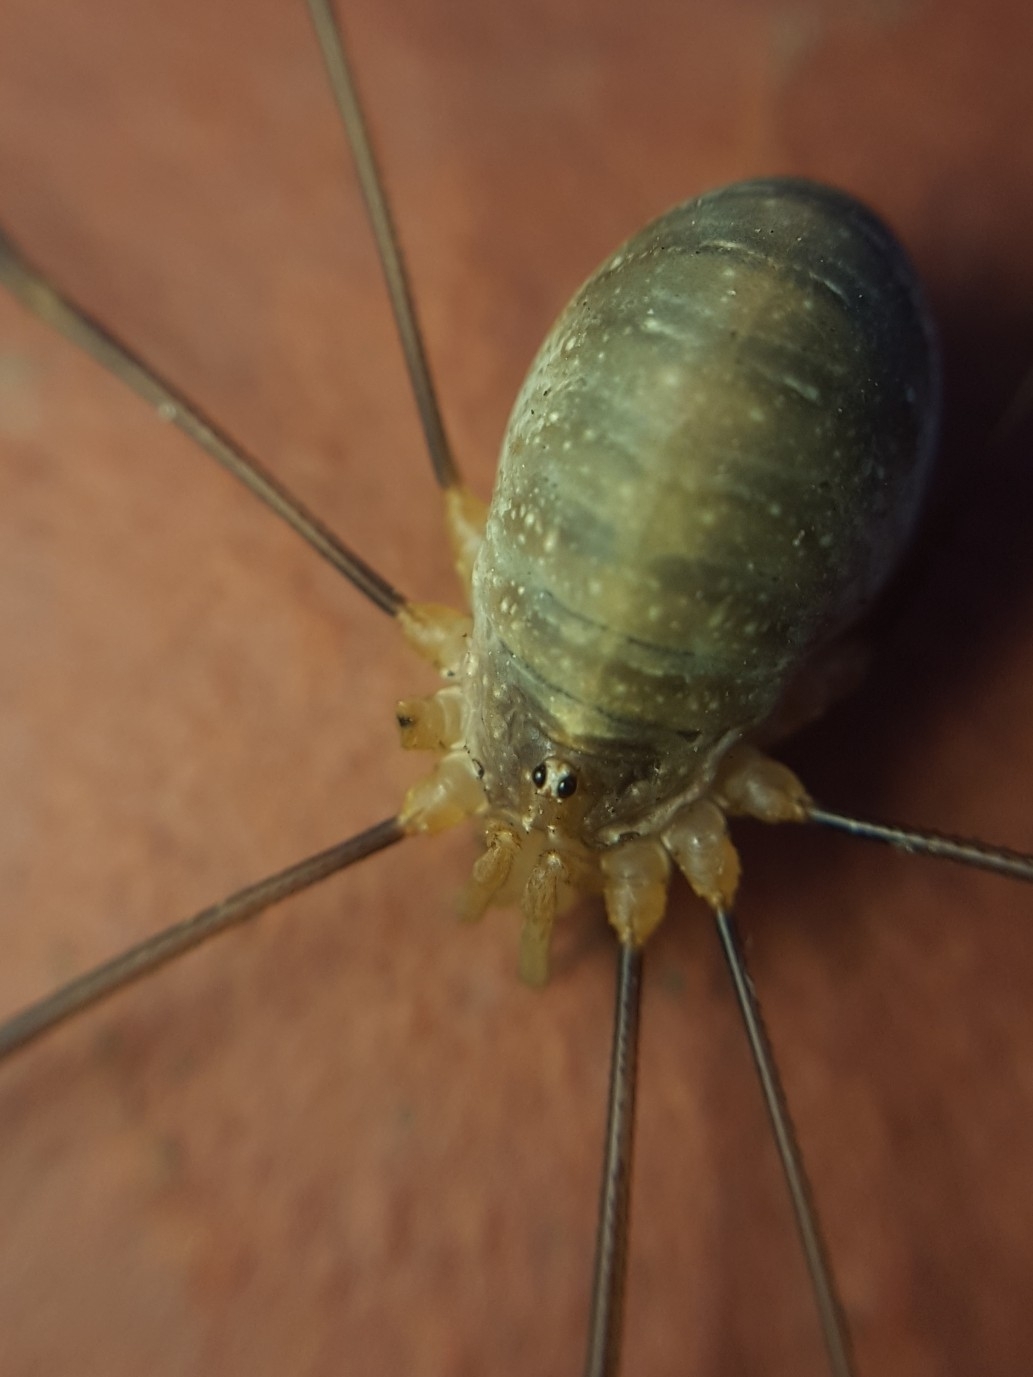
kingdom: Animalia
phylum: Arthropoda
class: Arachnida
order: Opiliones
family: Phalangiidae
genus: Opilio
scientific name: Opilio canestrinii
